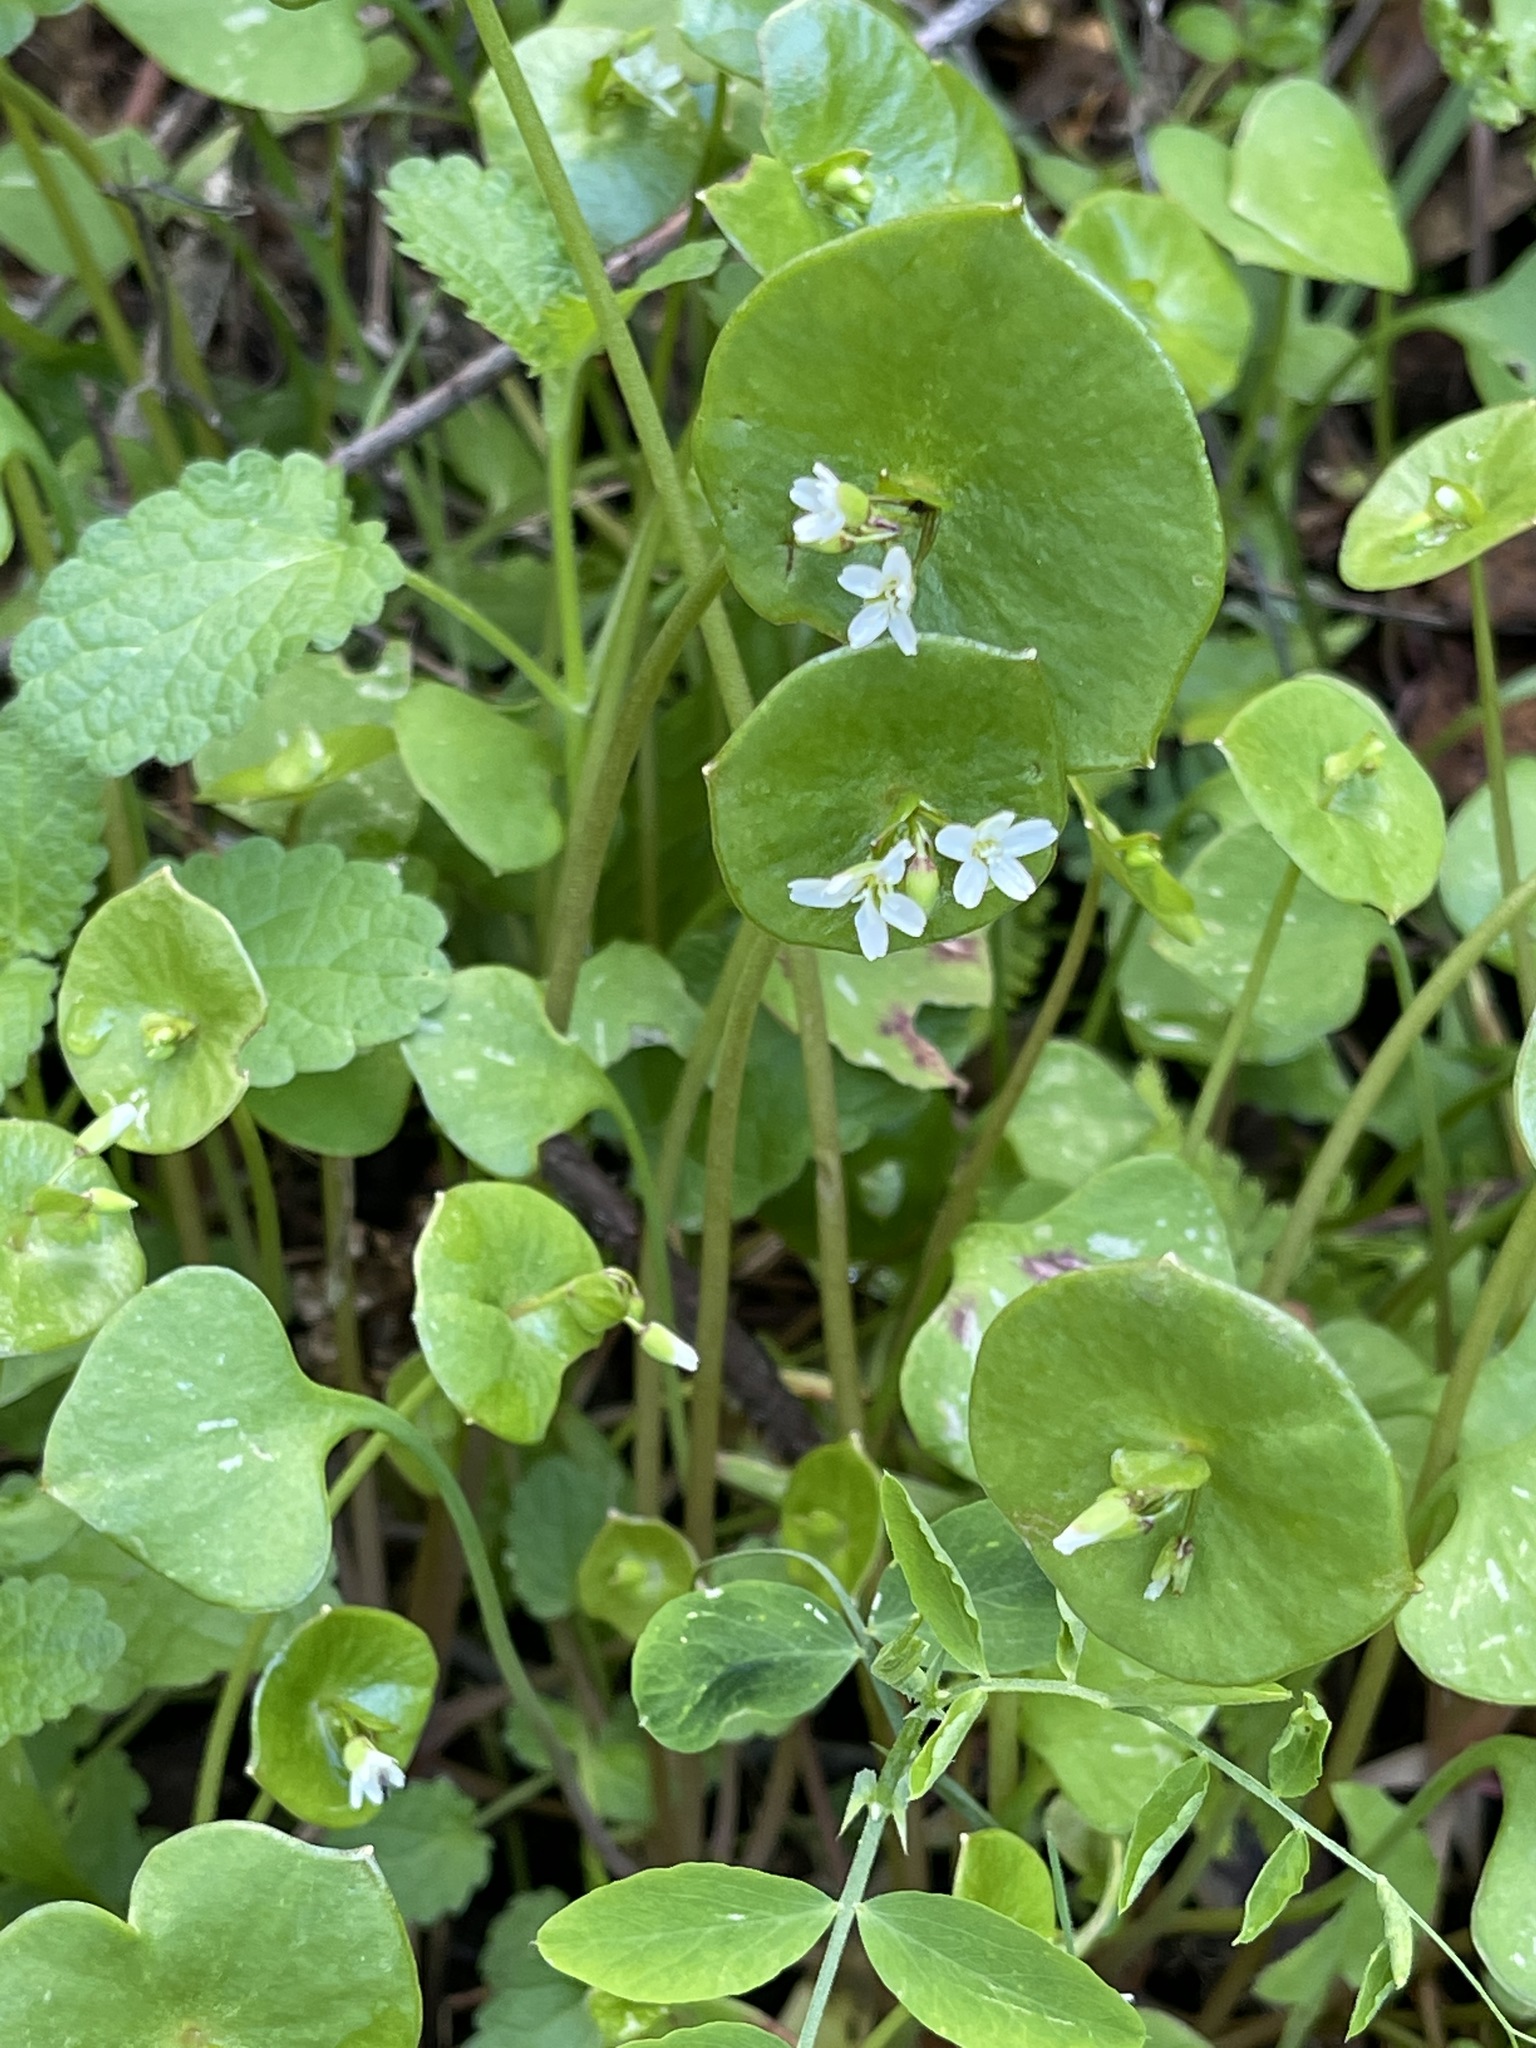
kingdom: Plantae
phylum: Tracheophyta
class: Magnoliopsida
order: Caryophyllales
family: Montiaceae
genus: Claytonia
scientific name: Claytonia perfoliata
